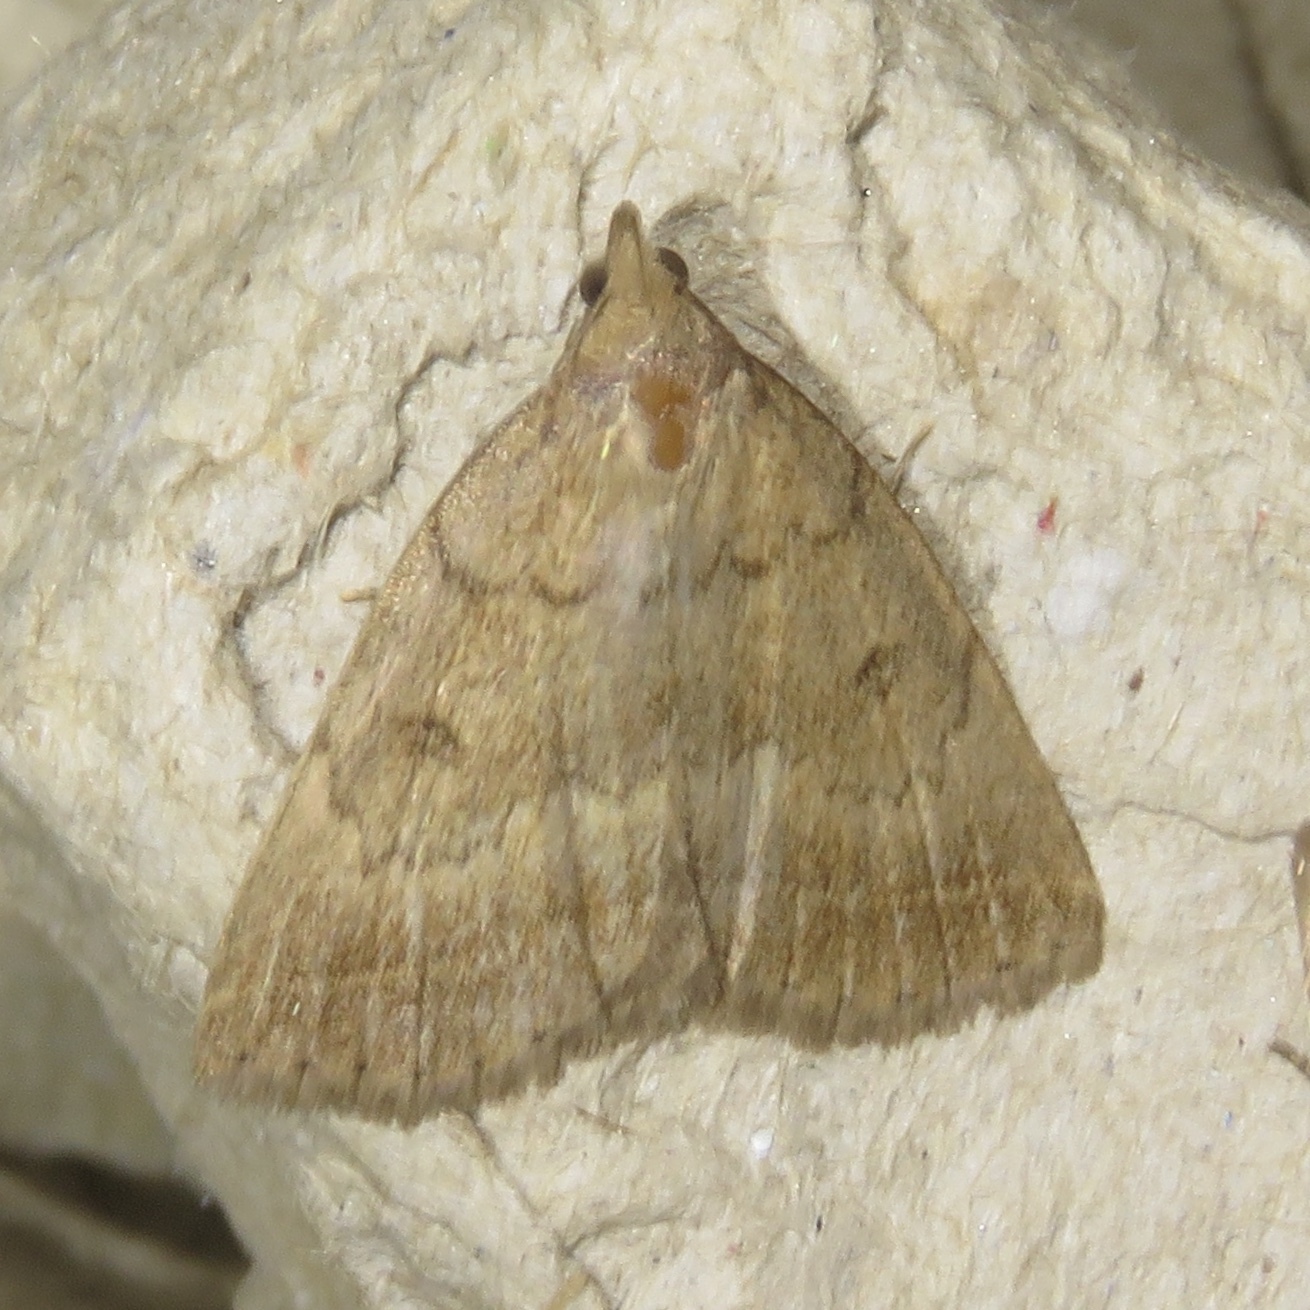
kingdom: Animalia
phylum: Arthropoda
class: Insecta
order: Lepidoptera
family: Erebidae
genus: Zanclognatha
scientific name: Zanclognatha jacchusalis
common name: Yellowish zanclognatha
